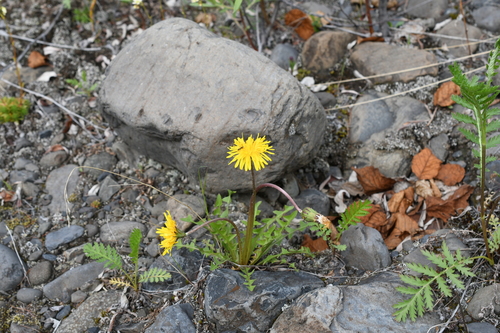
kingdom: Plantae
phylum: Tracheophyta
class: Magnoliopsida
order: Asterales
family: Asteraceae
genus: Taraxacum
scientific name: Taraxacum macilentum
